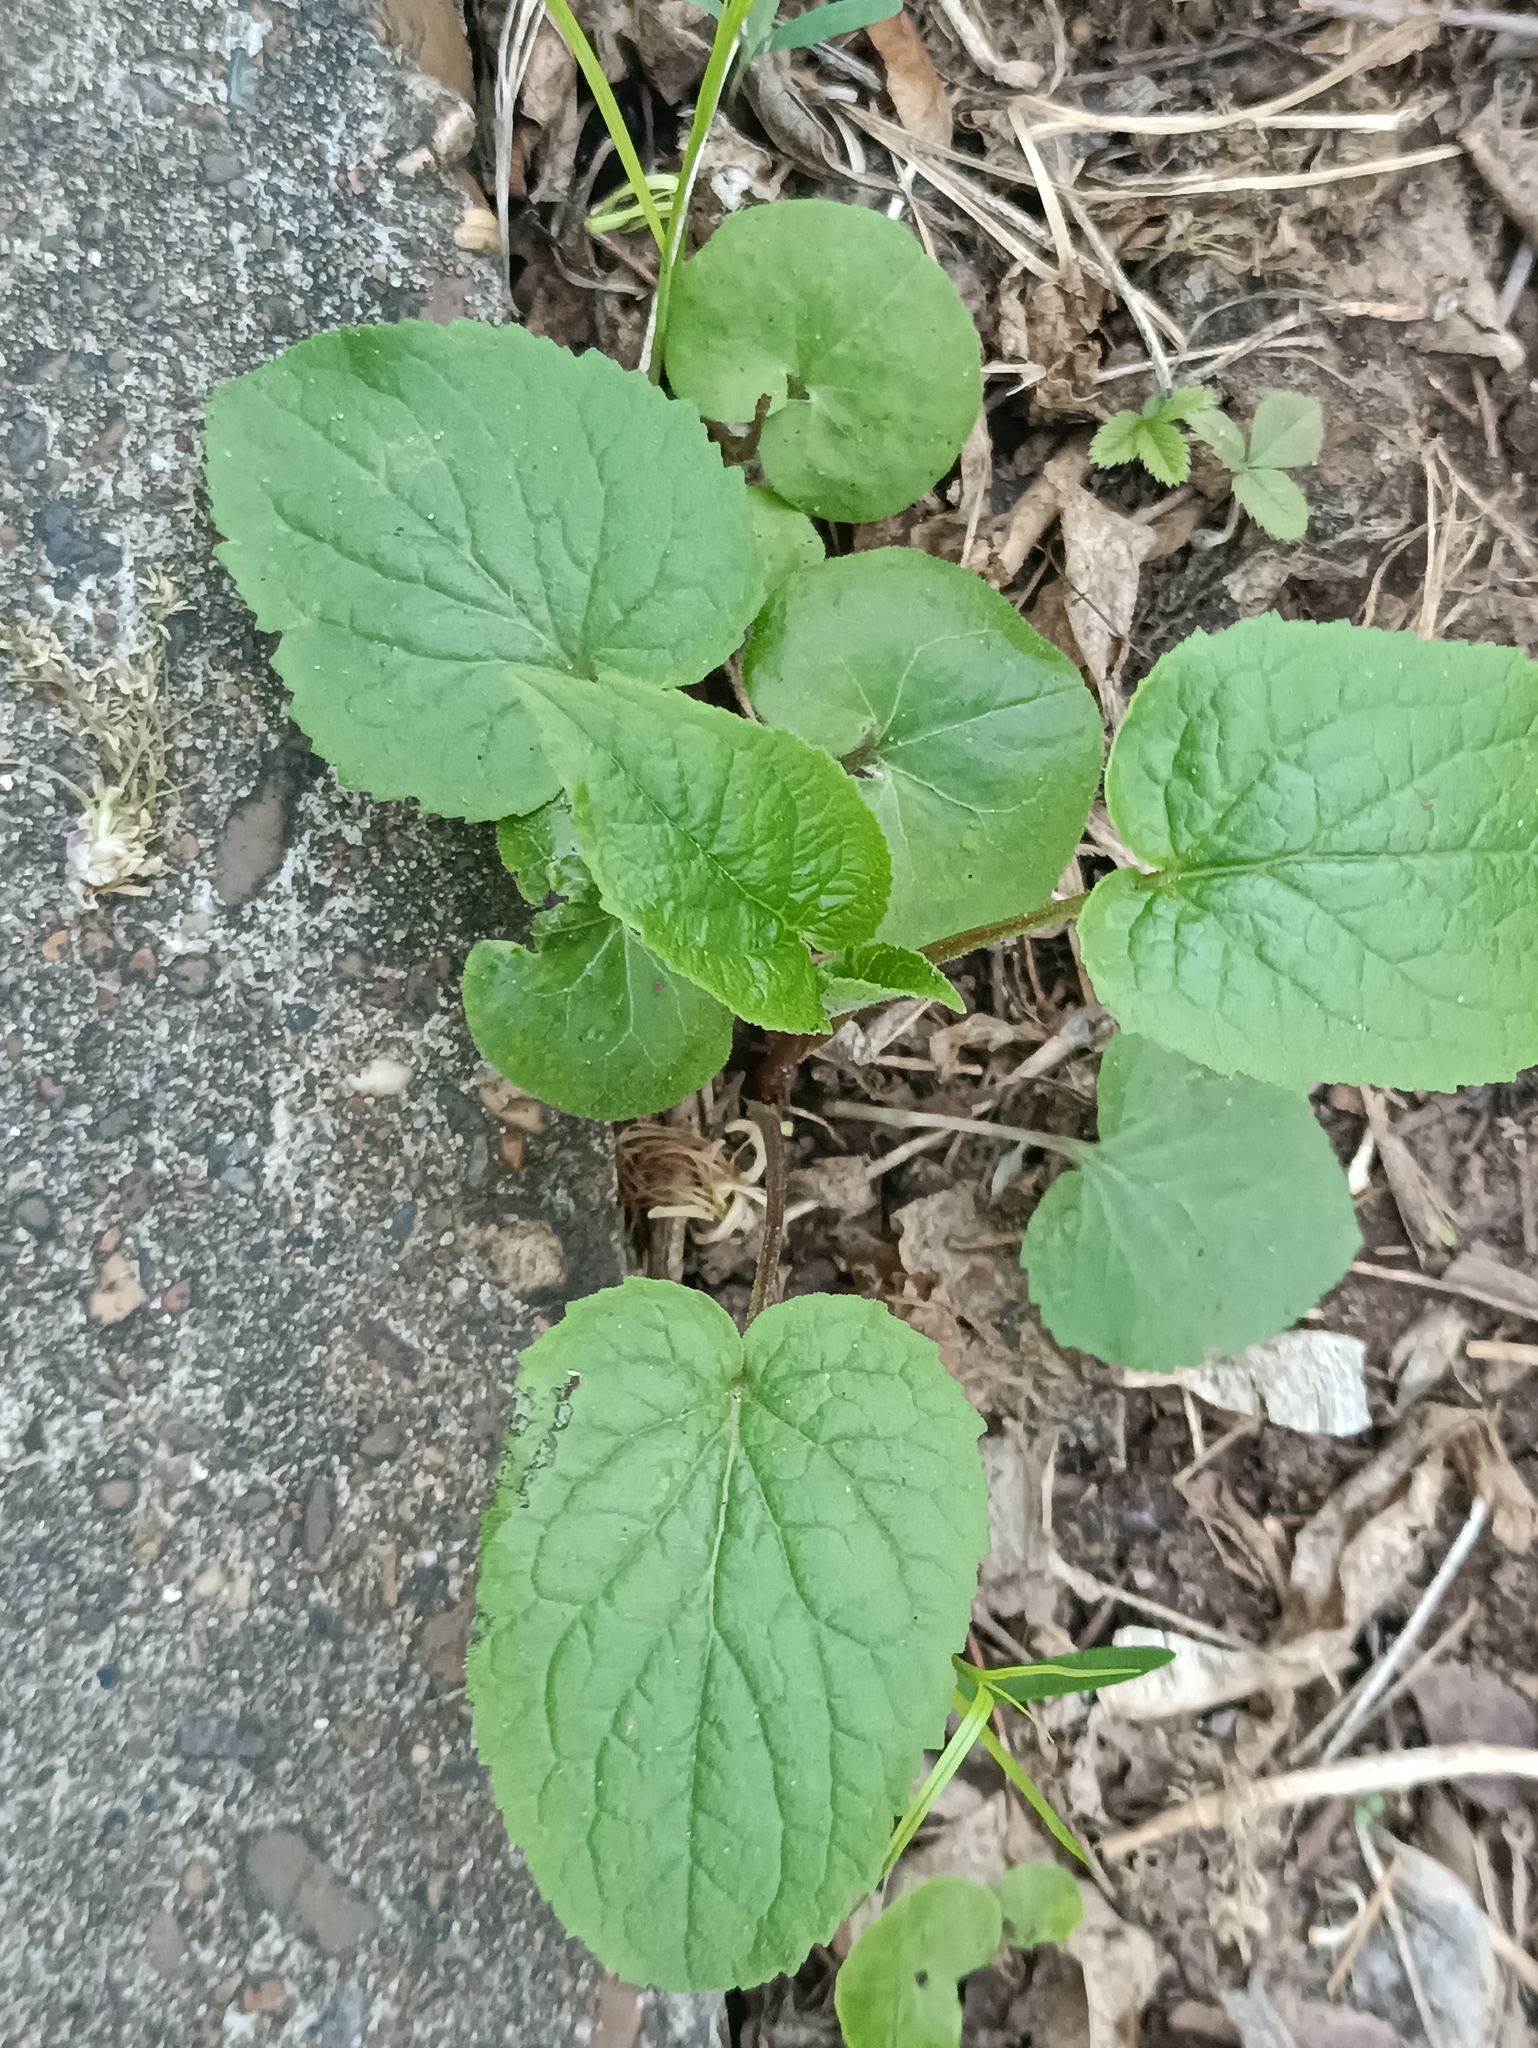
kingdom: Plantae
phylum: Tracheophyta
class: Magnoliopsida
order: Asterales
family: Campanulaceae
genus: Campanula
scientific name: Campanula rapunculoides
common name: Creeping bellflower
